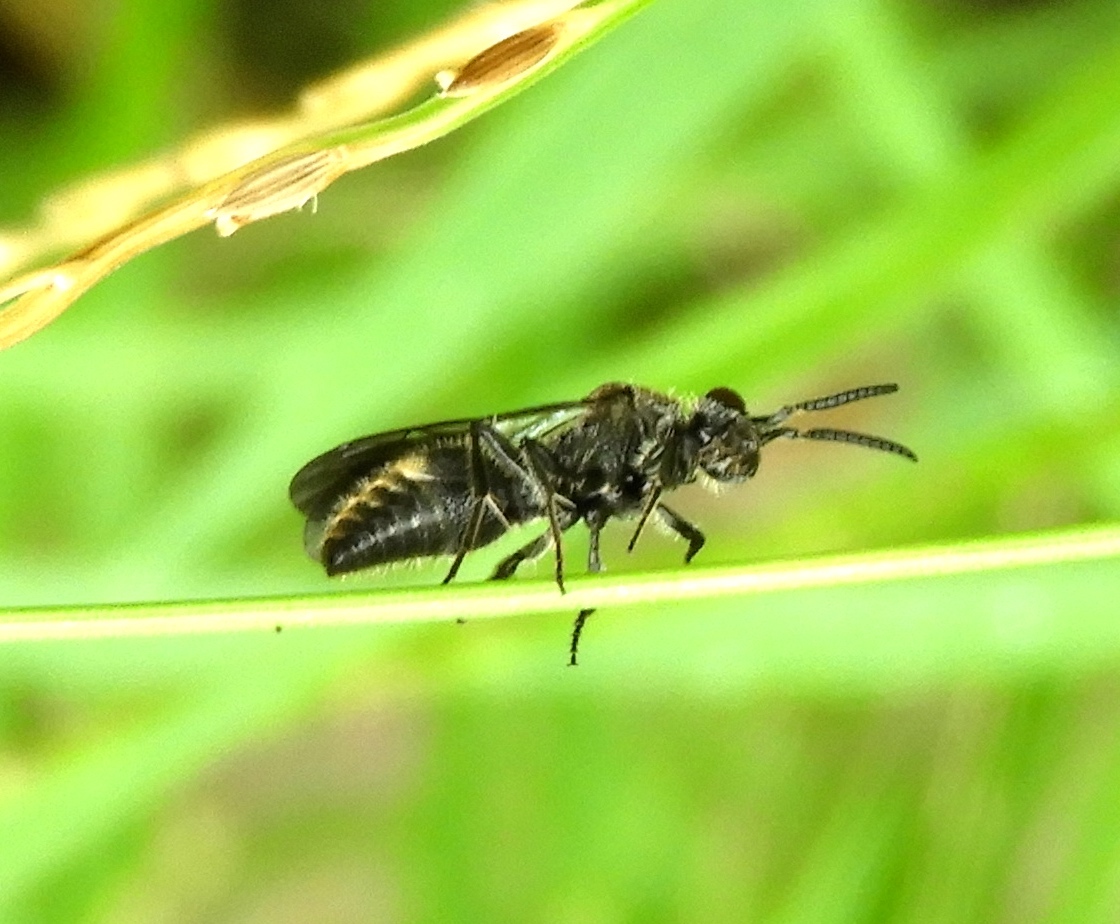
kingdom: Animalia
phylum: Arthropoda
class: Insecta
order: Hymenoptera
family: Mutillidae
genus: Ephuta
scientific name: Ephuta
